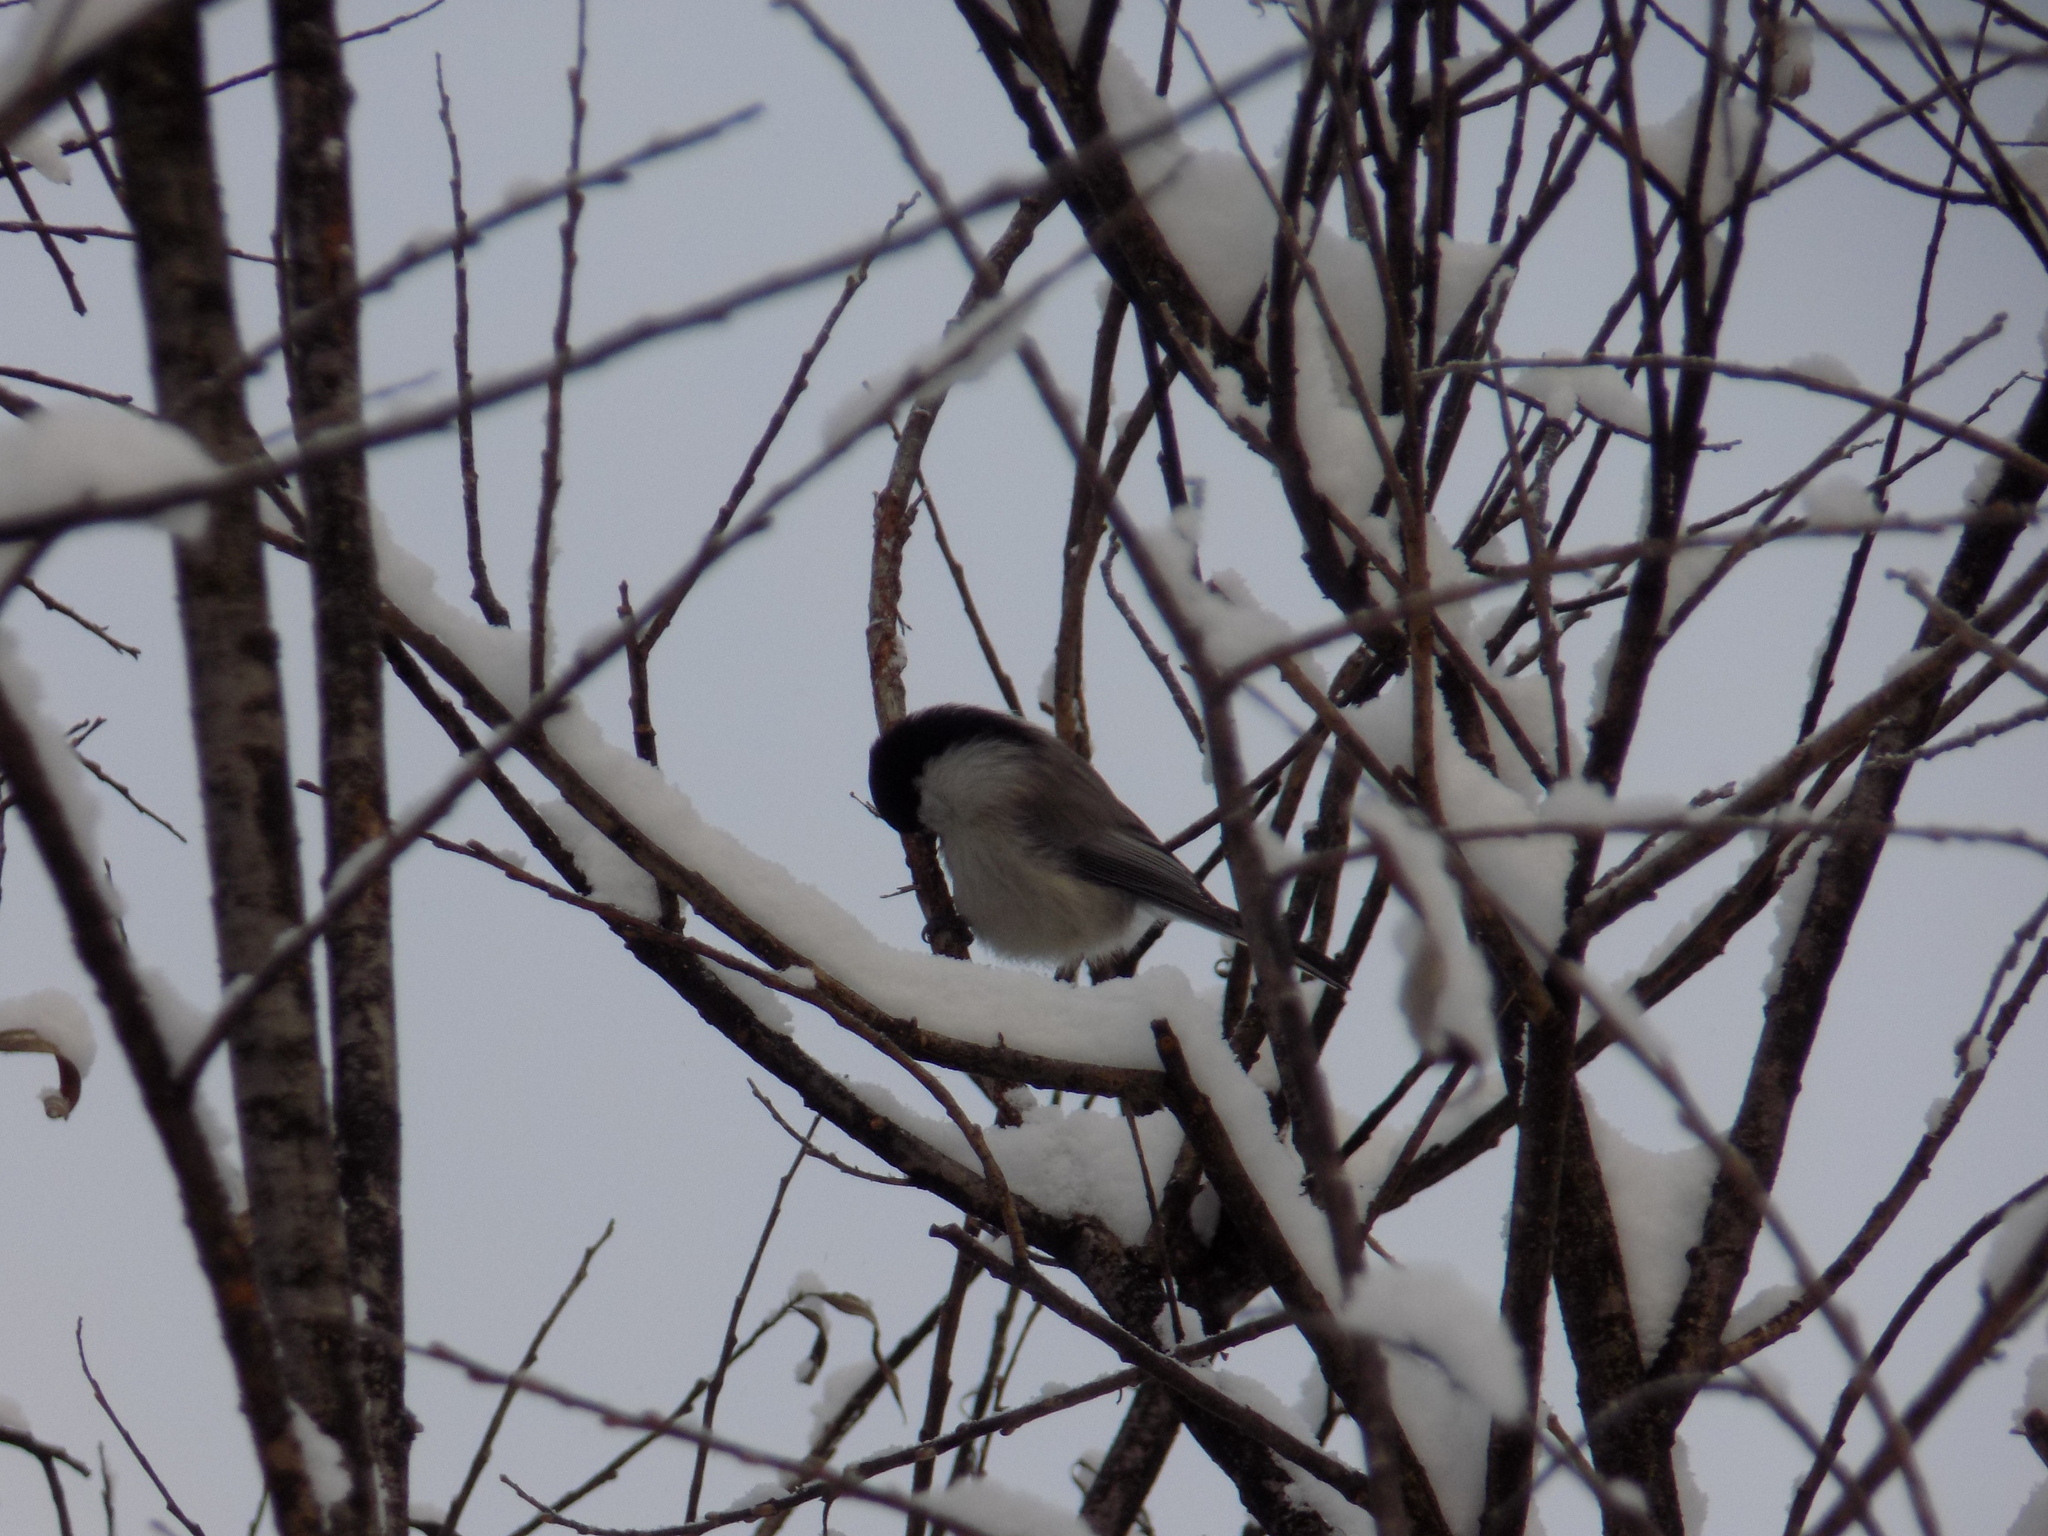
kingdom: Animalia
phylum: Chordata
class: Aves
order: Passeriformes
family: Paridae
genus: Poecile
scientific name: Poecile montanus
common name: Willow tit
